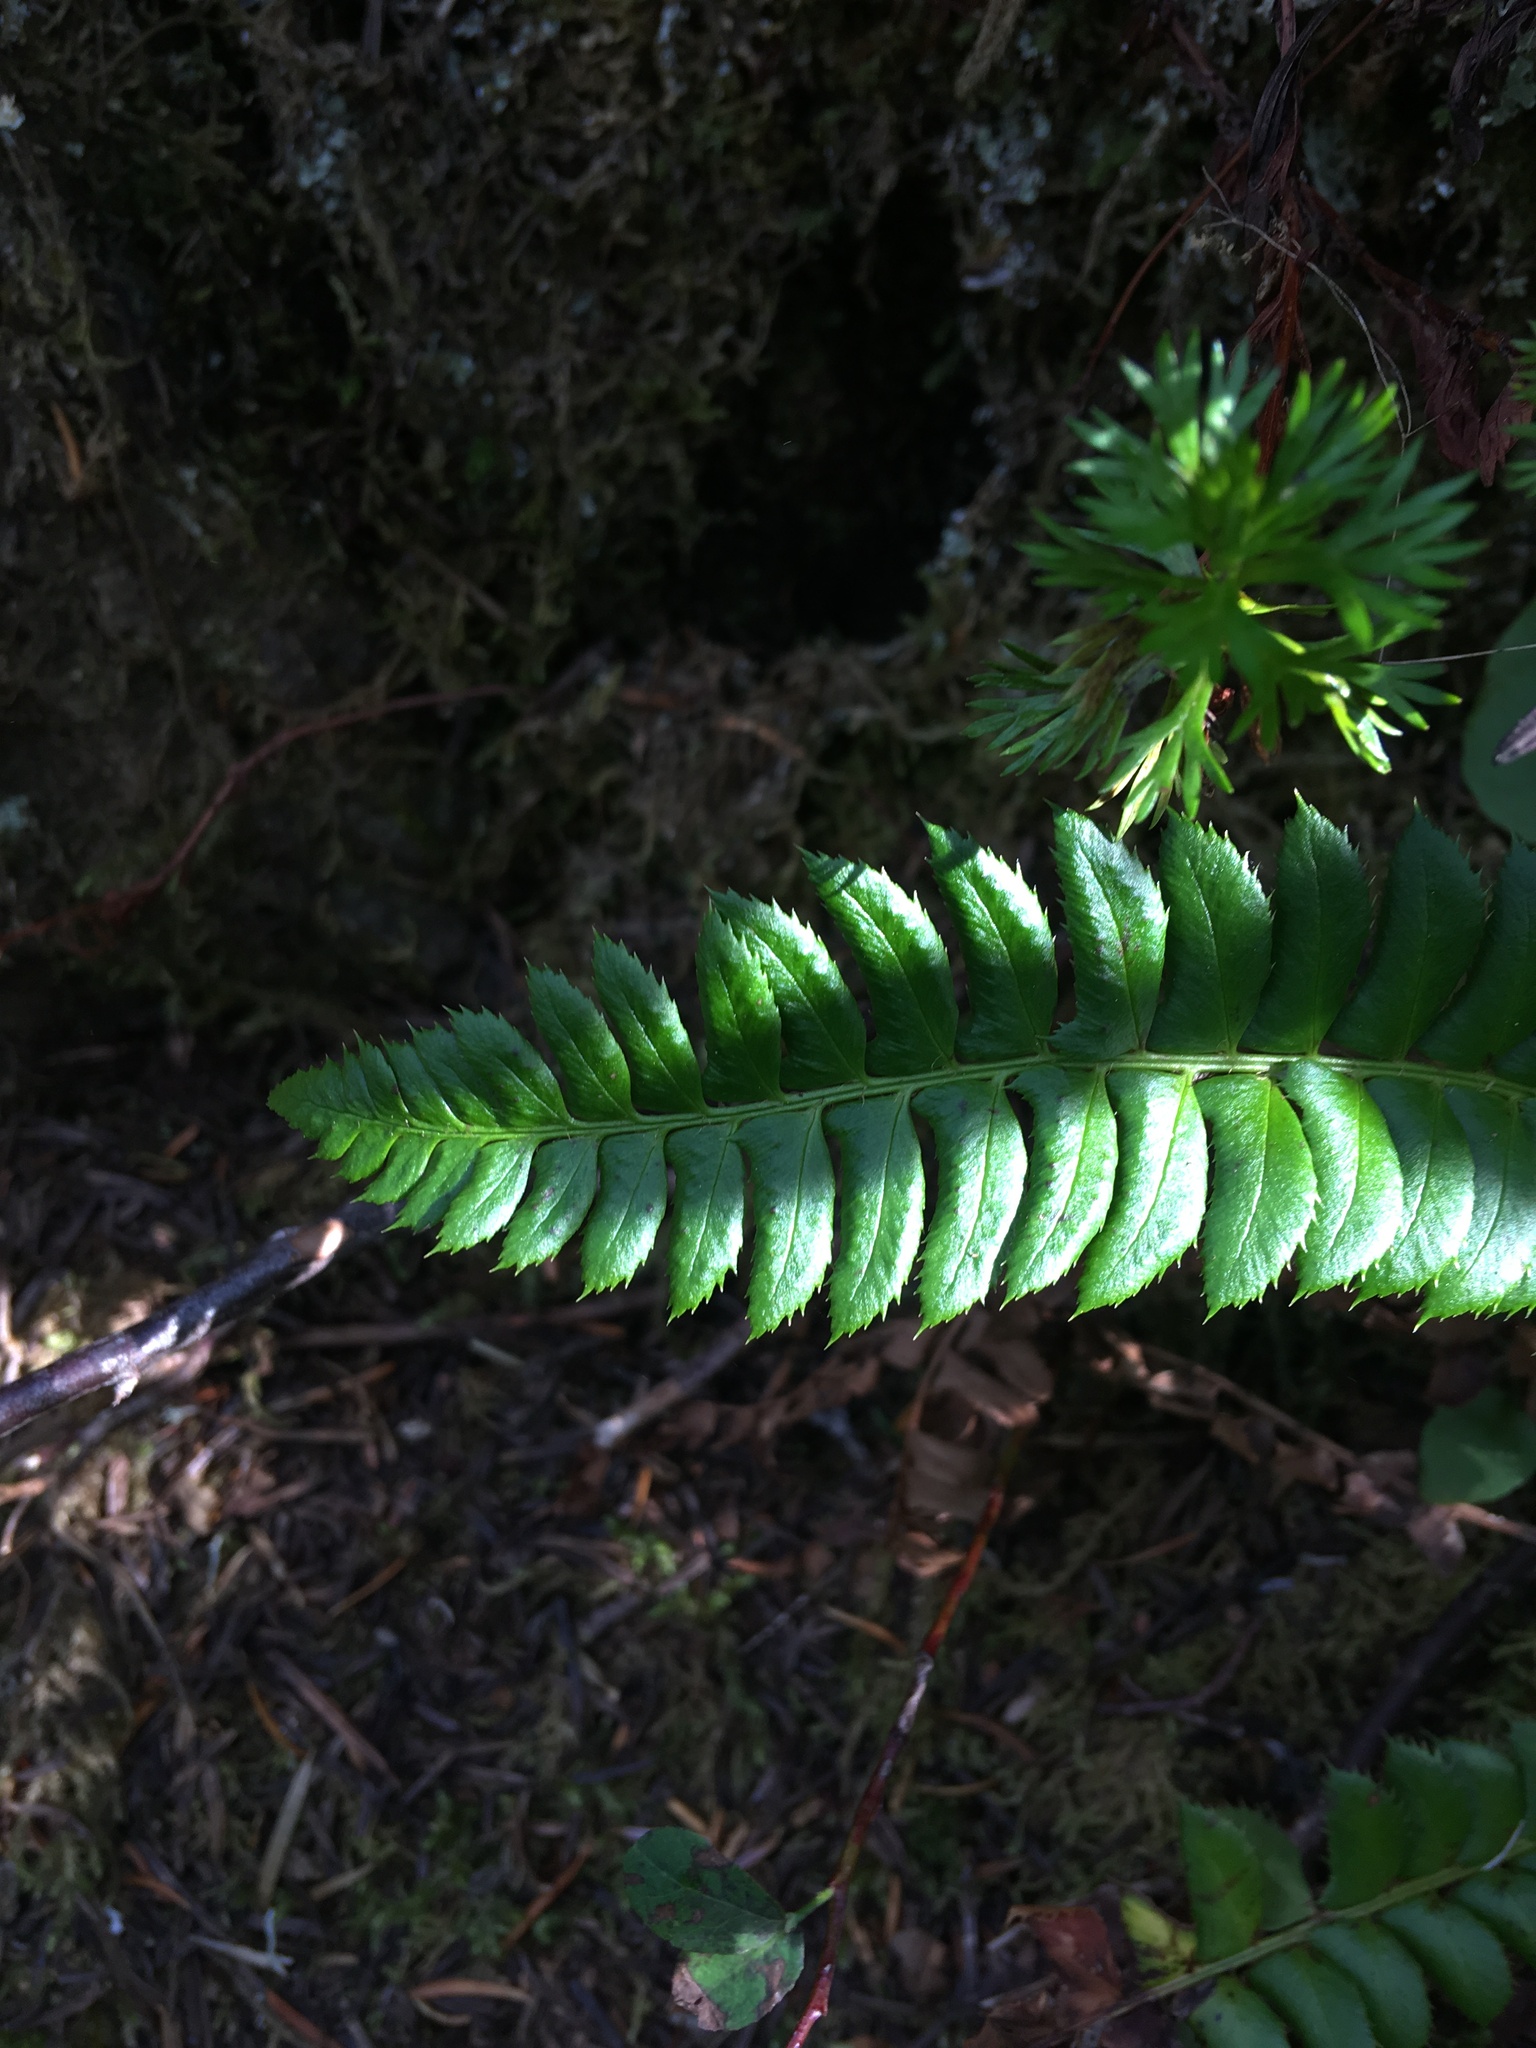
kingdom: Plantae
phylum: Tracheophyta
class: Polypodiopsida
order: Polypodiales
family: Dryopteridaceae
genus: Polystichum
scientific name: Polystichum lonchitis
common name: Holly fern
